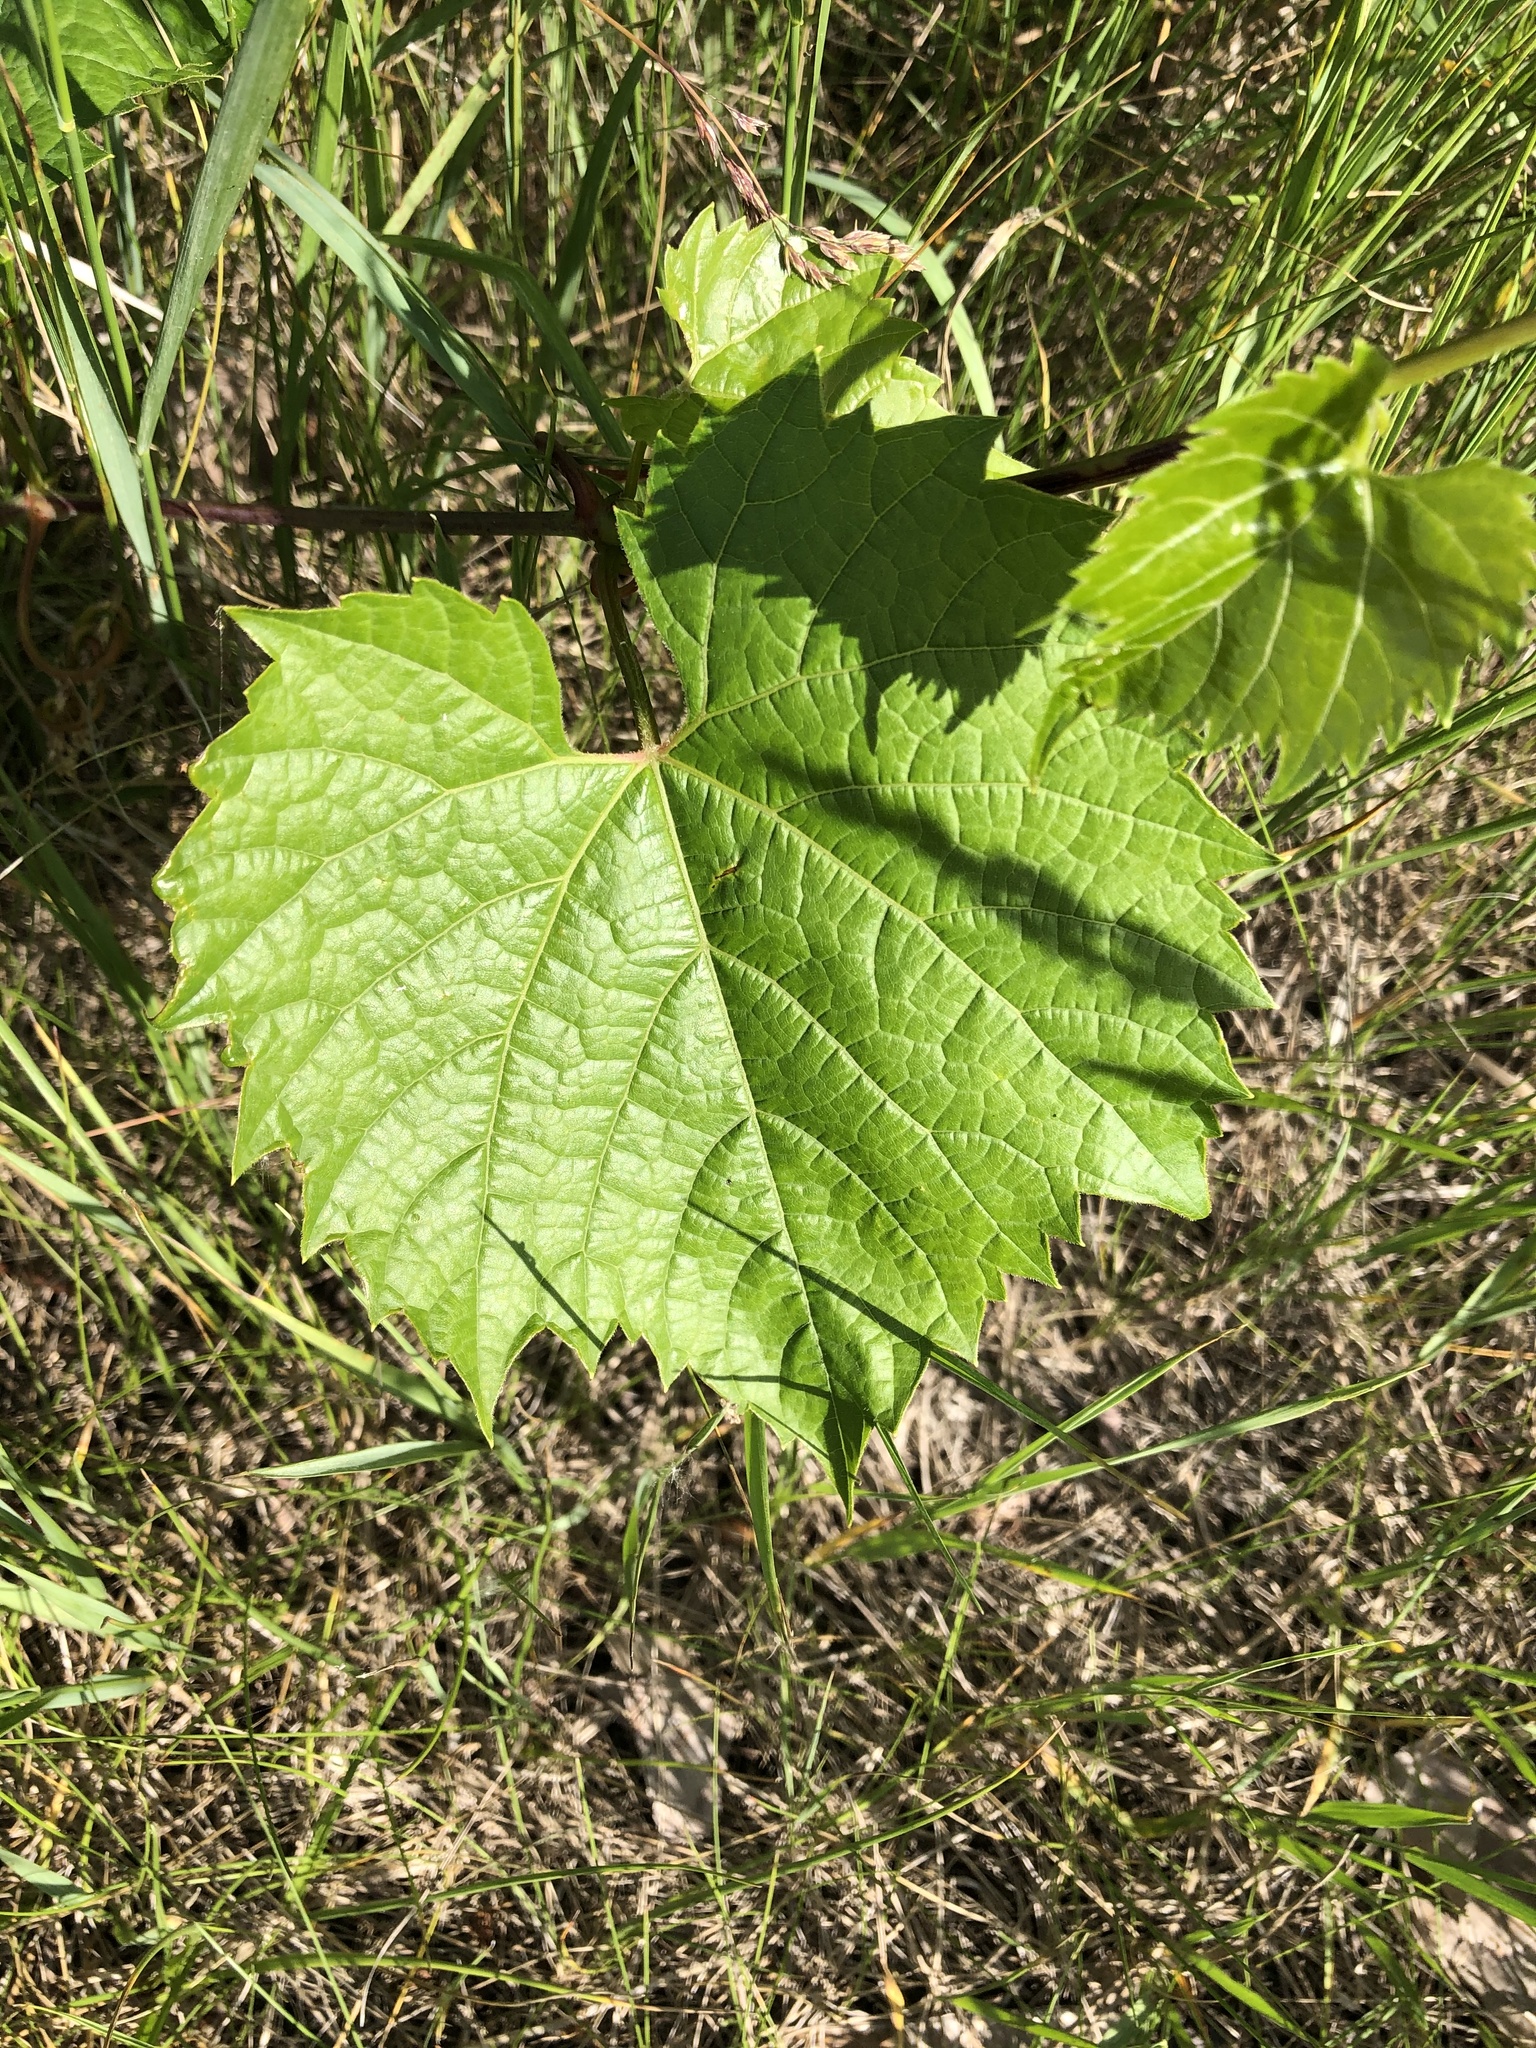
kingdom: Plantae
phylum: Tracheophyta
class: Magnoliopsida
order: Vitales
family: Vitaceae
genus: Vitis
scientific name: Vitis riparia
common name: Frost grape
